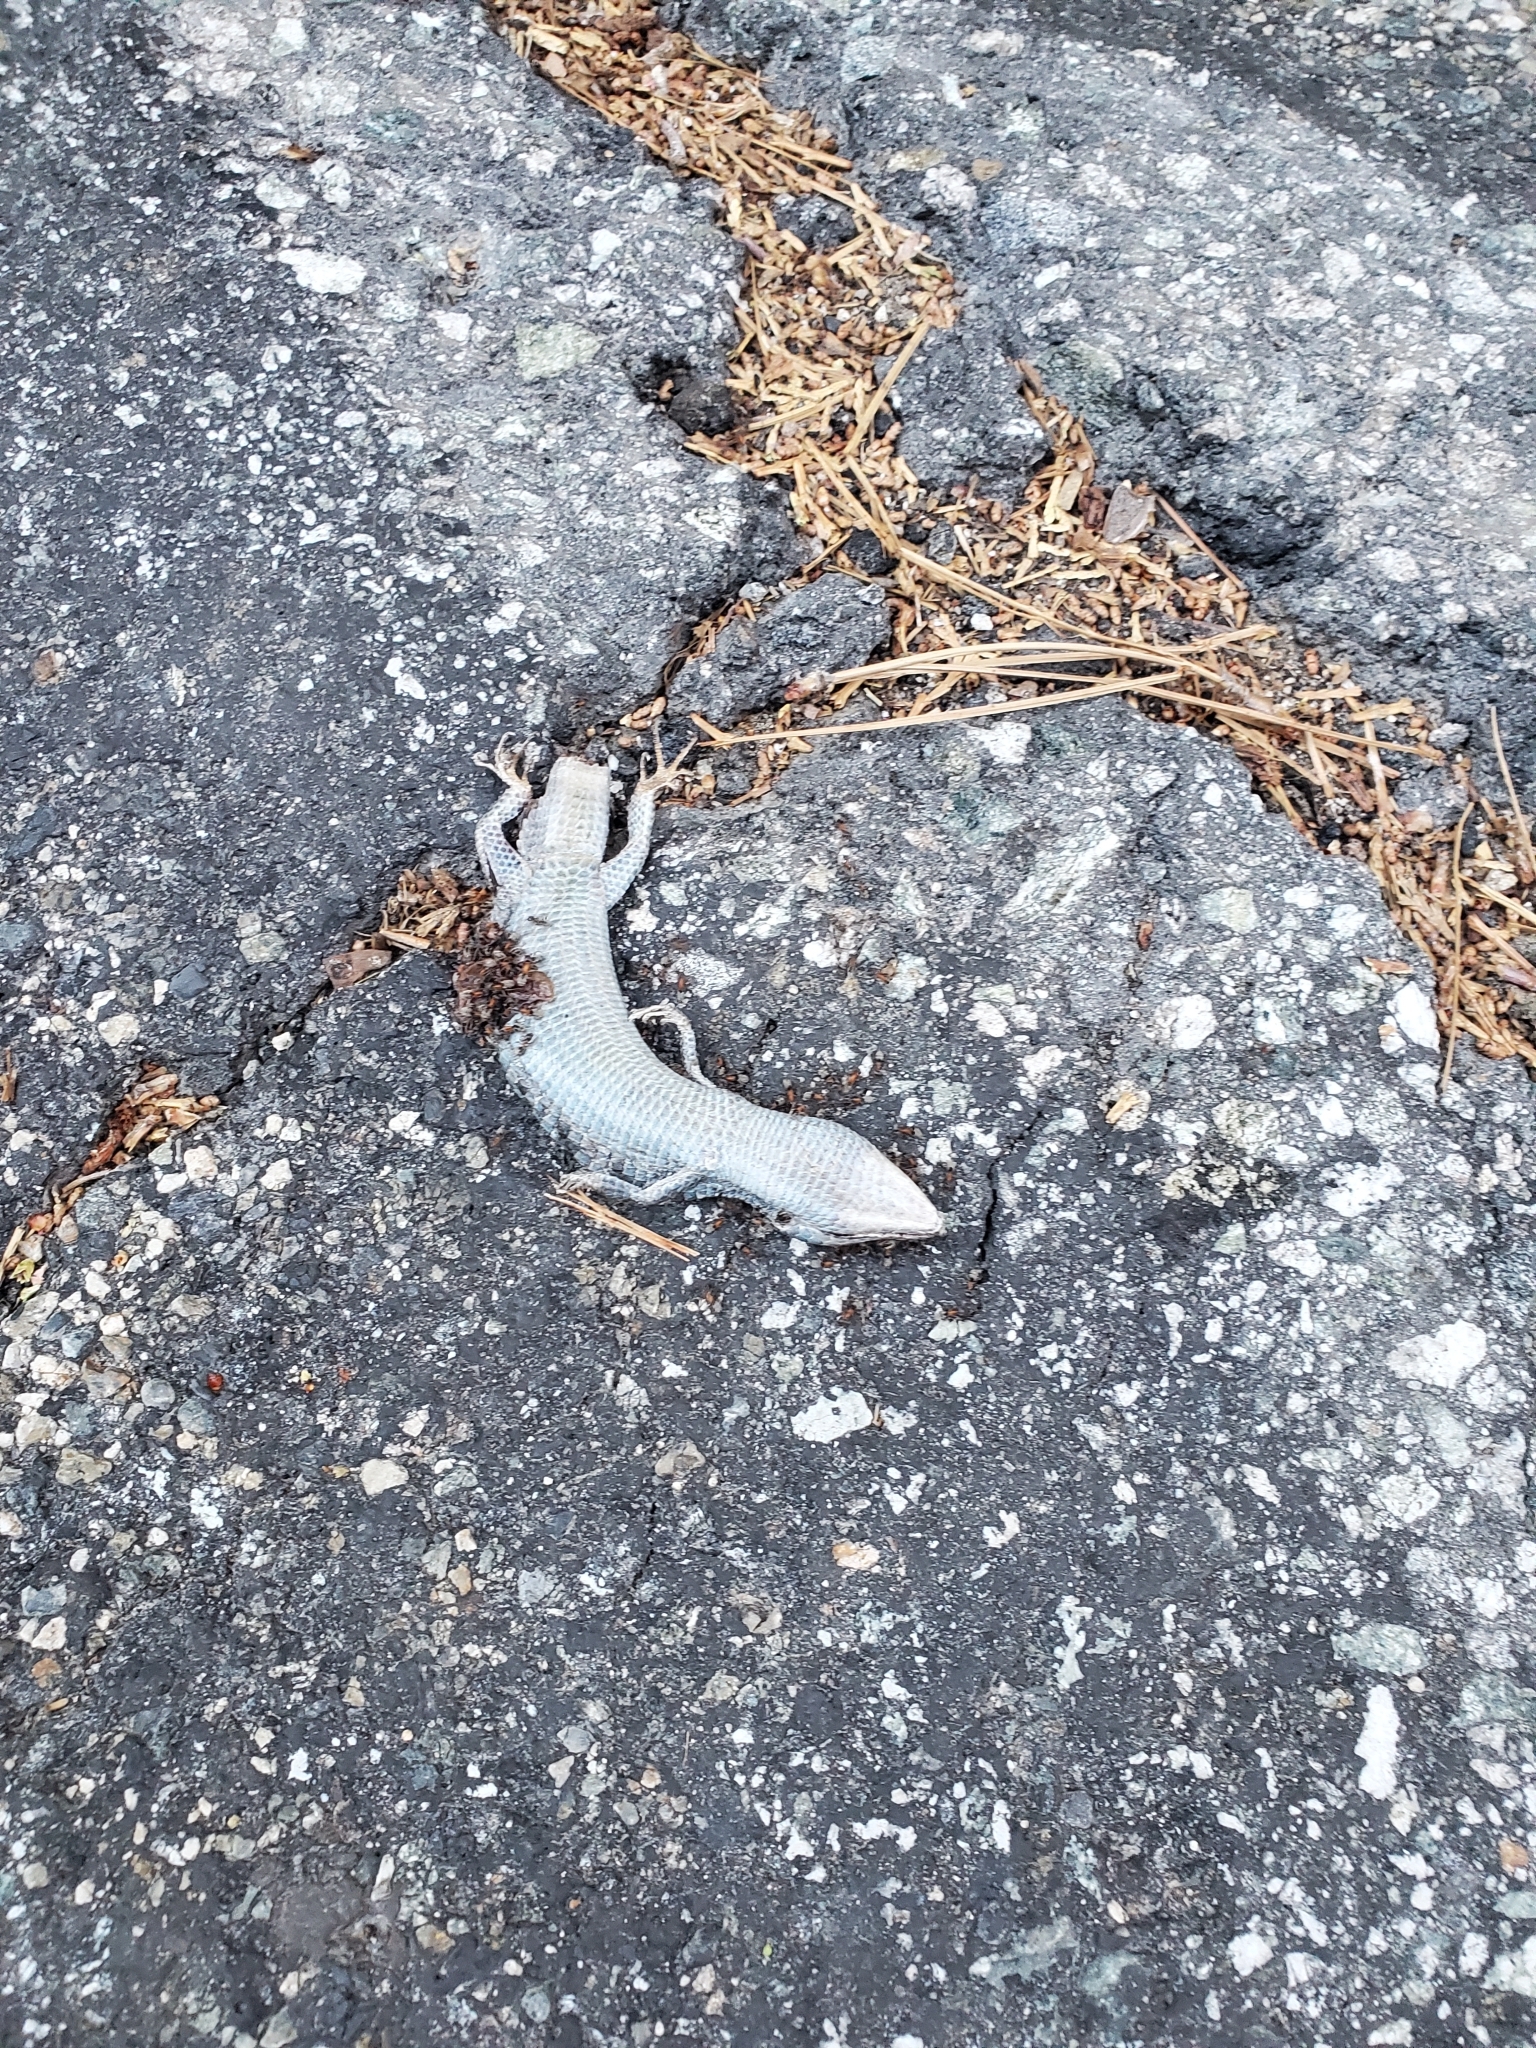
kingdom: Animalia
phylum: Chordata
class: Squamata
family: Anguidae
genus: Elgaria
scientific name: Elgaria multicarinata
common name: Southern alligator lizard
